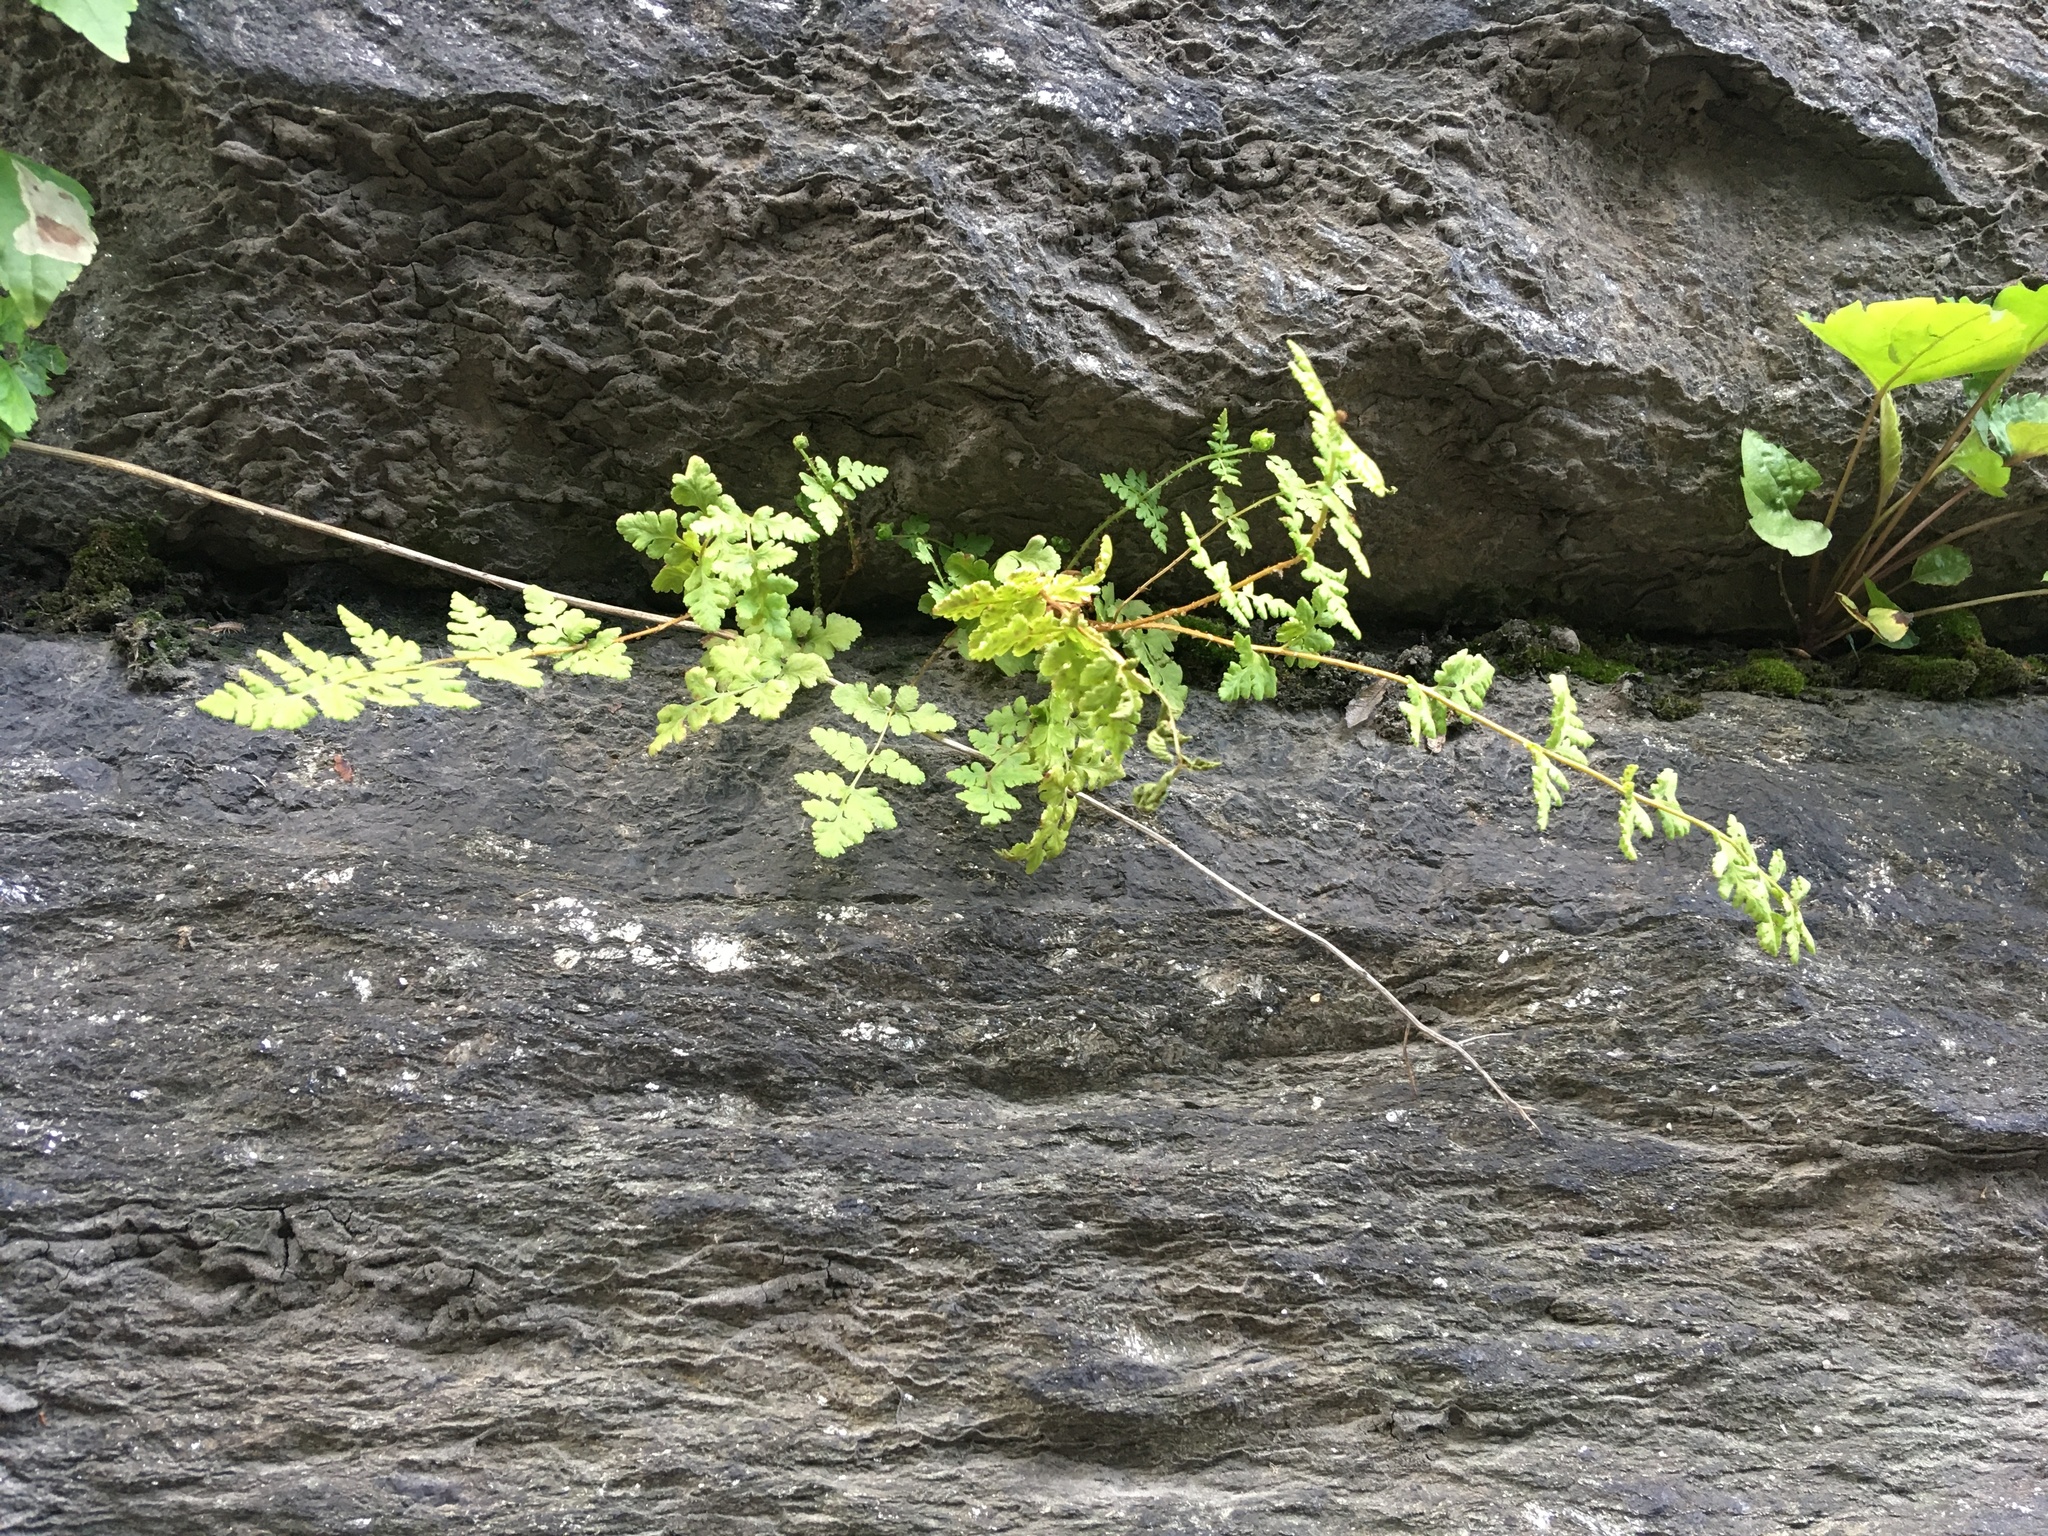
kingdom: Plantae
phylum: Tracheophyta
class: Polypodiopsida
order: Polypodiales
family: Woodsiaceae
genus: Physematium
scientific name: Physematium obtusum
